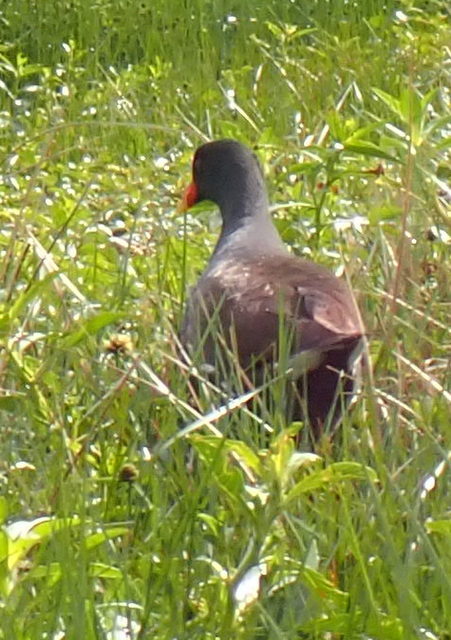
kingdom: Animalia
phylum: Chordata
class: Aves
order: Gruiformes
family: Rallidae
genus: Gallinula
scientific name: Gallinula chloropus
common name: Common moorhen
